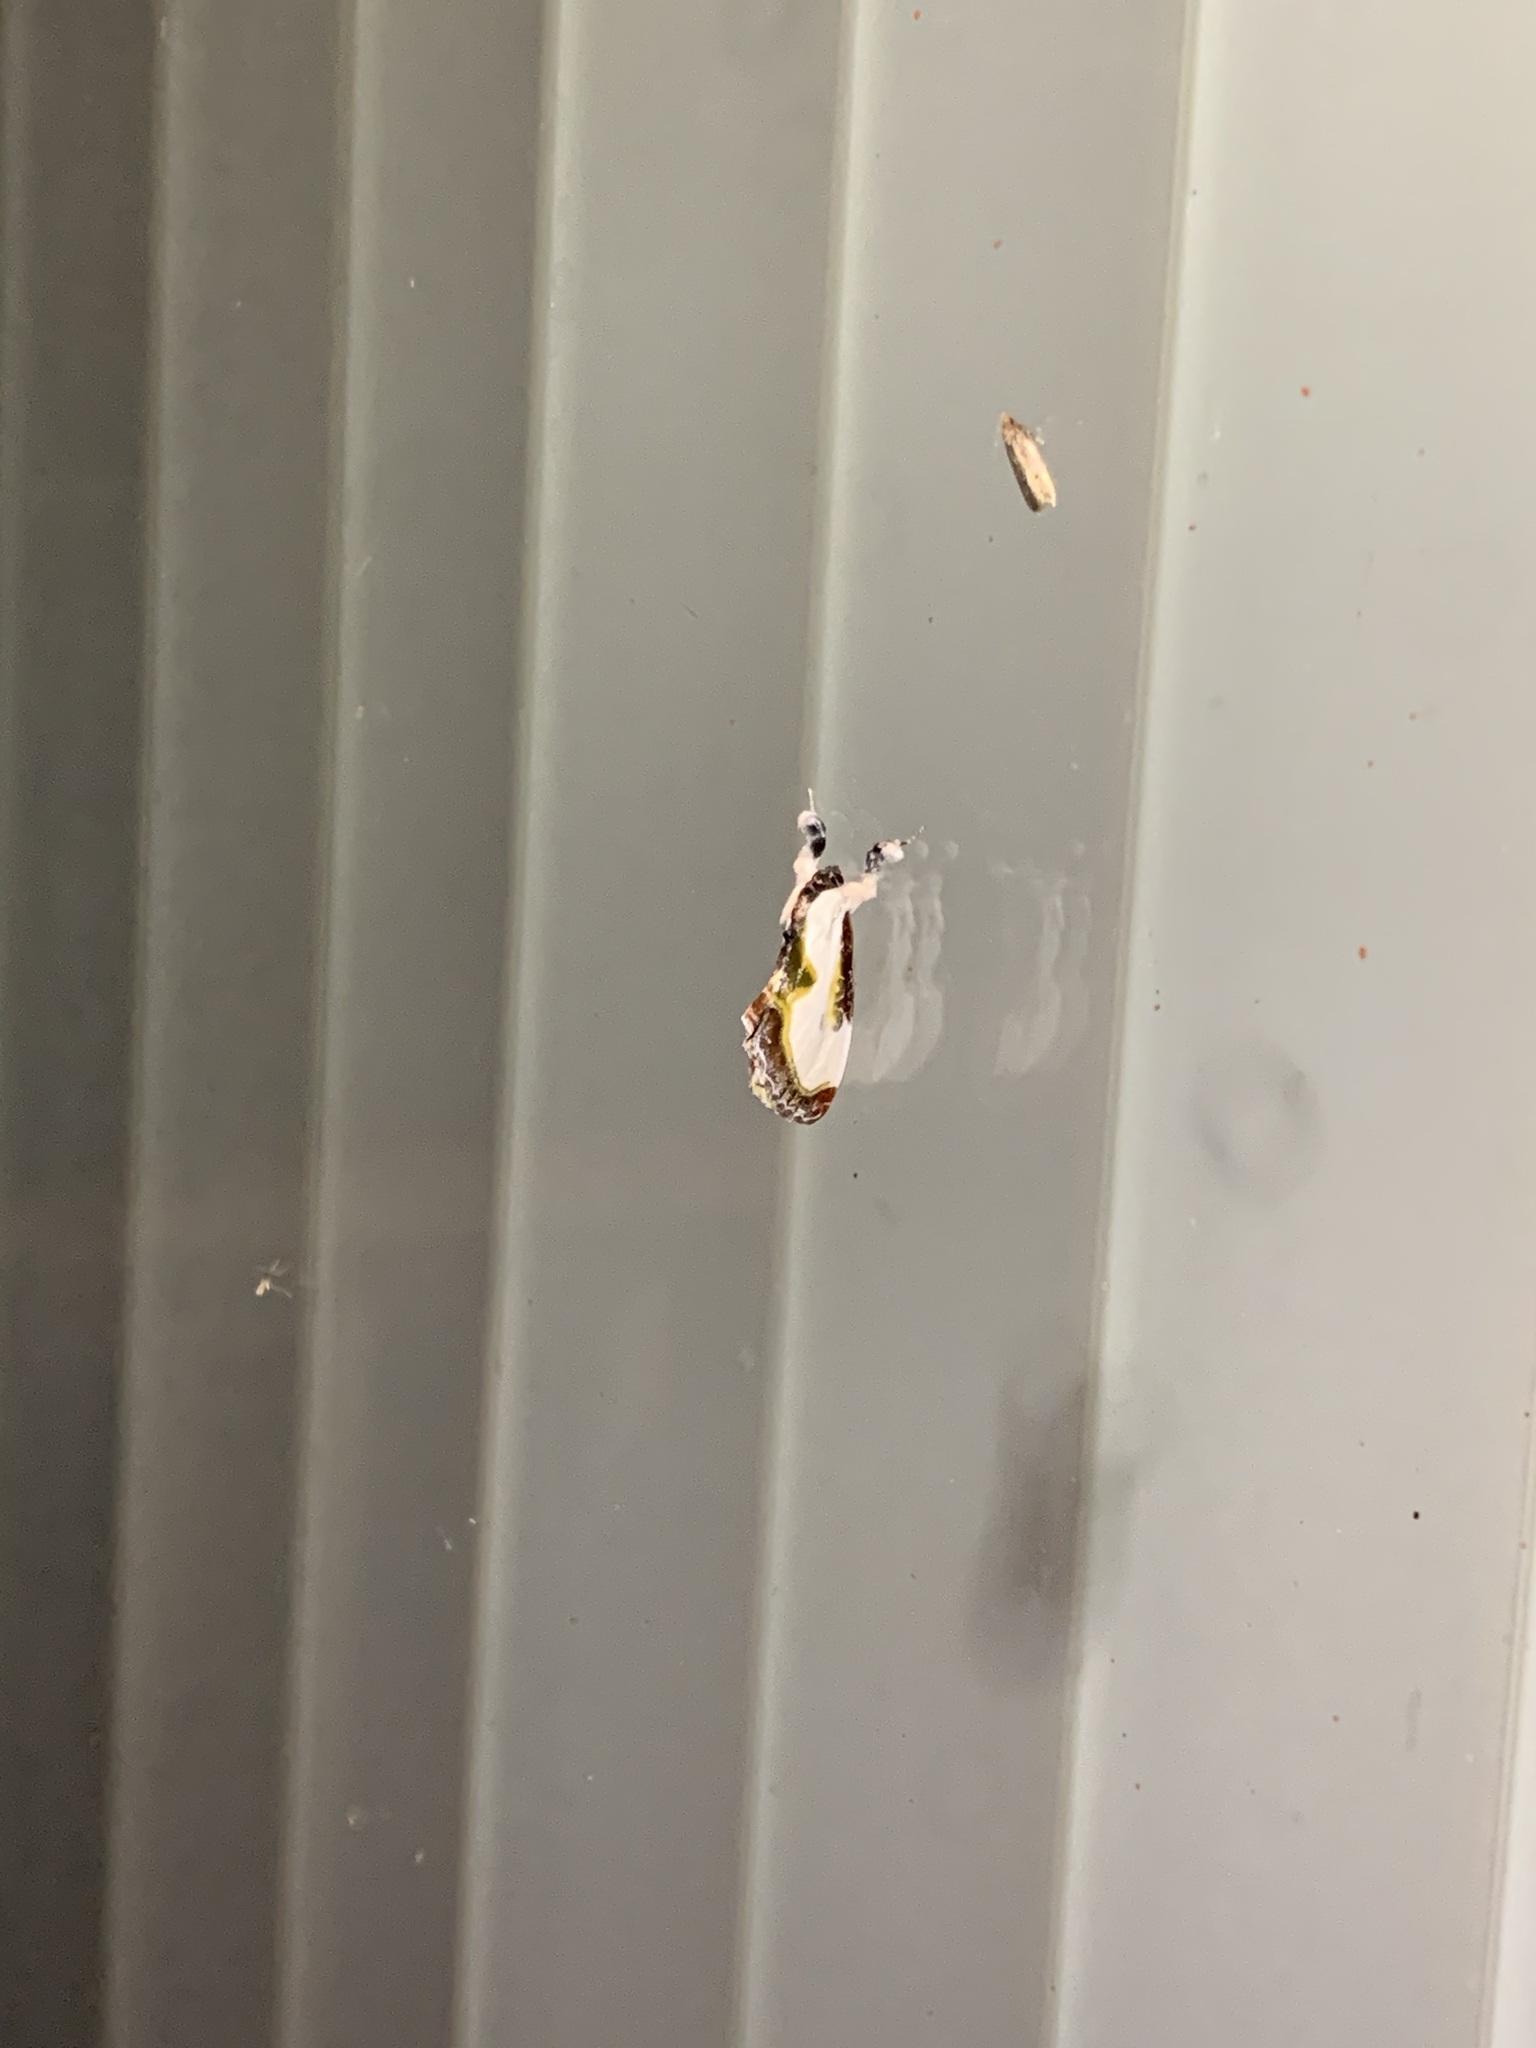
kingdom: Animalia
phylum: Arthropoda
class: Insecta
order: Lepidoptera
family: Noctuidae
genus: Eudryas
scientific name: Eudryas grata
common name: Beautiful wood-nymph
